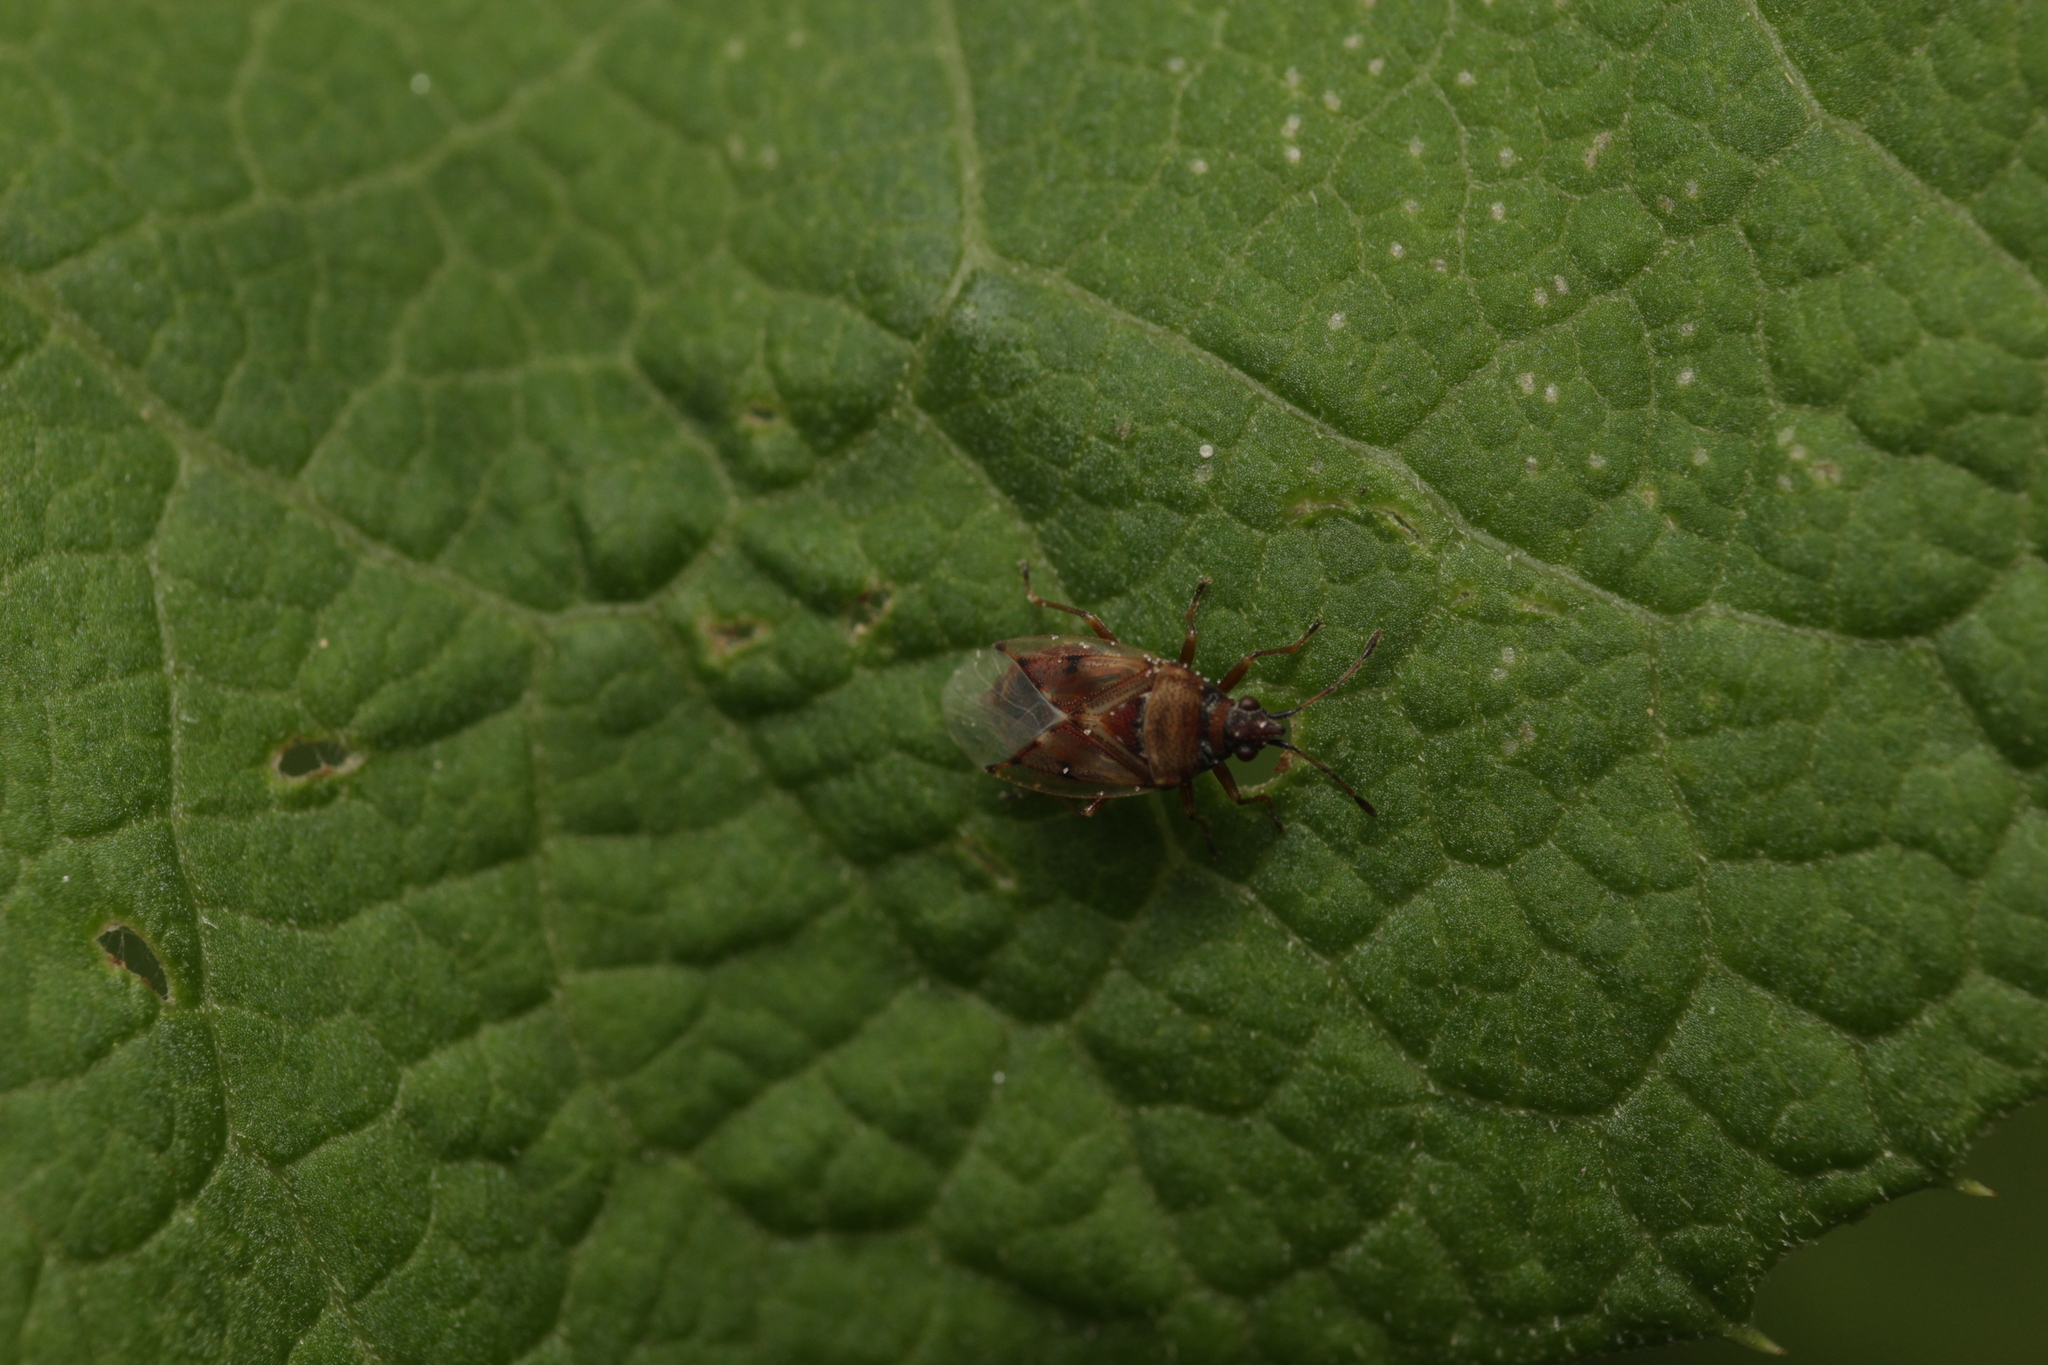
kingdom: Animalia
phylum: Arthropoda
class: Insecta
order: Hemiptera
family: Lygaeidae
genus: Kleidocerys
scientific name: Kleidocerys resedae
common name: Birch catkin bug
